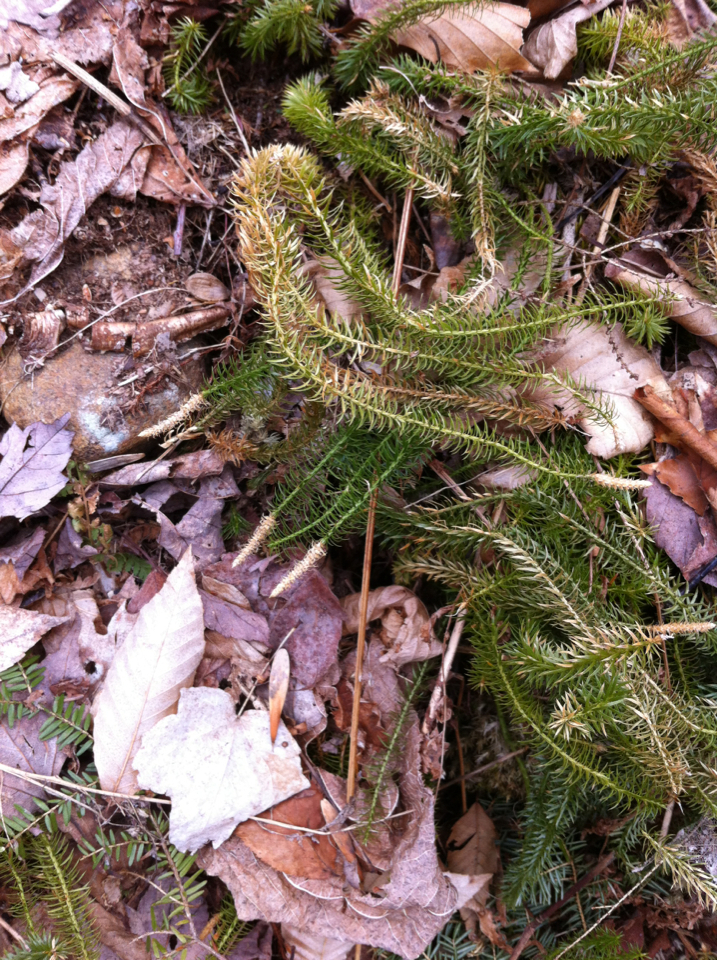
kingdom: Plantae
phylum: Tracheophyta
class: Lycopodiopsida
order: Lycopodiales
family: Lycopodiaceae
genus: Spinulum
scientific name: Spinulum annotinum
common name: Interrupted club-moss
